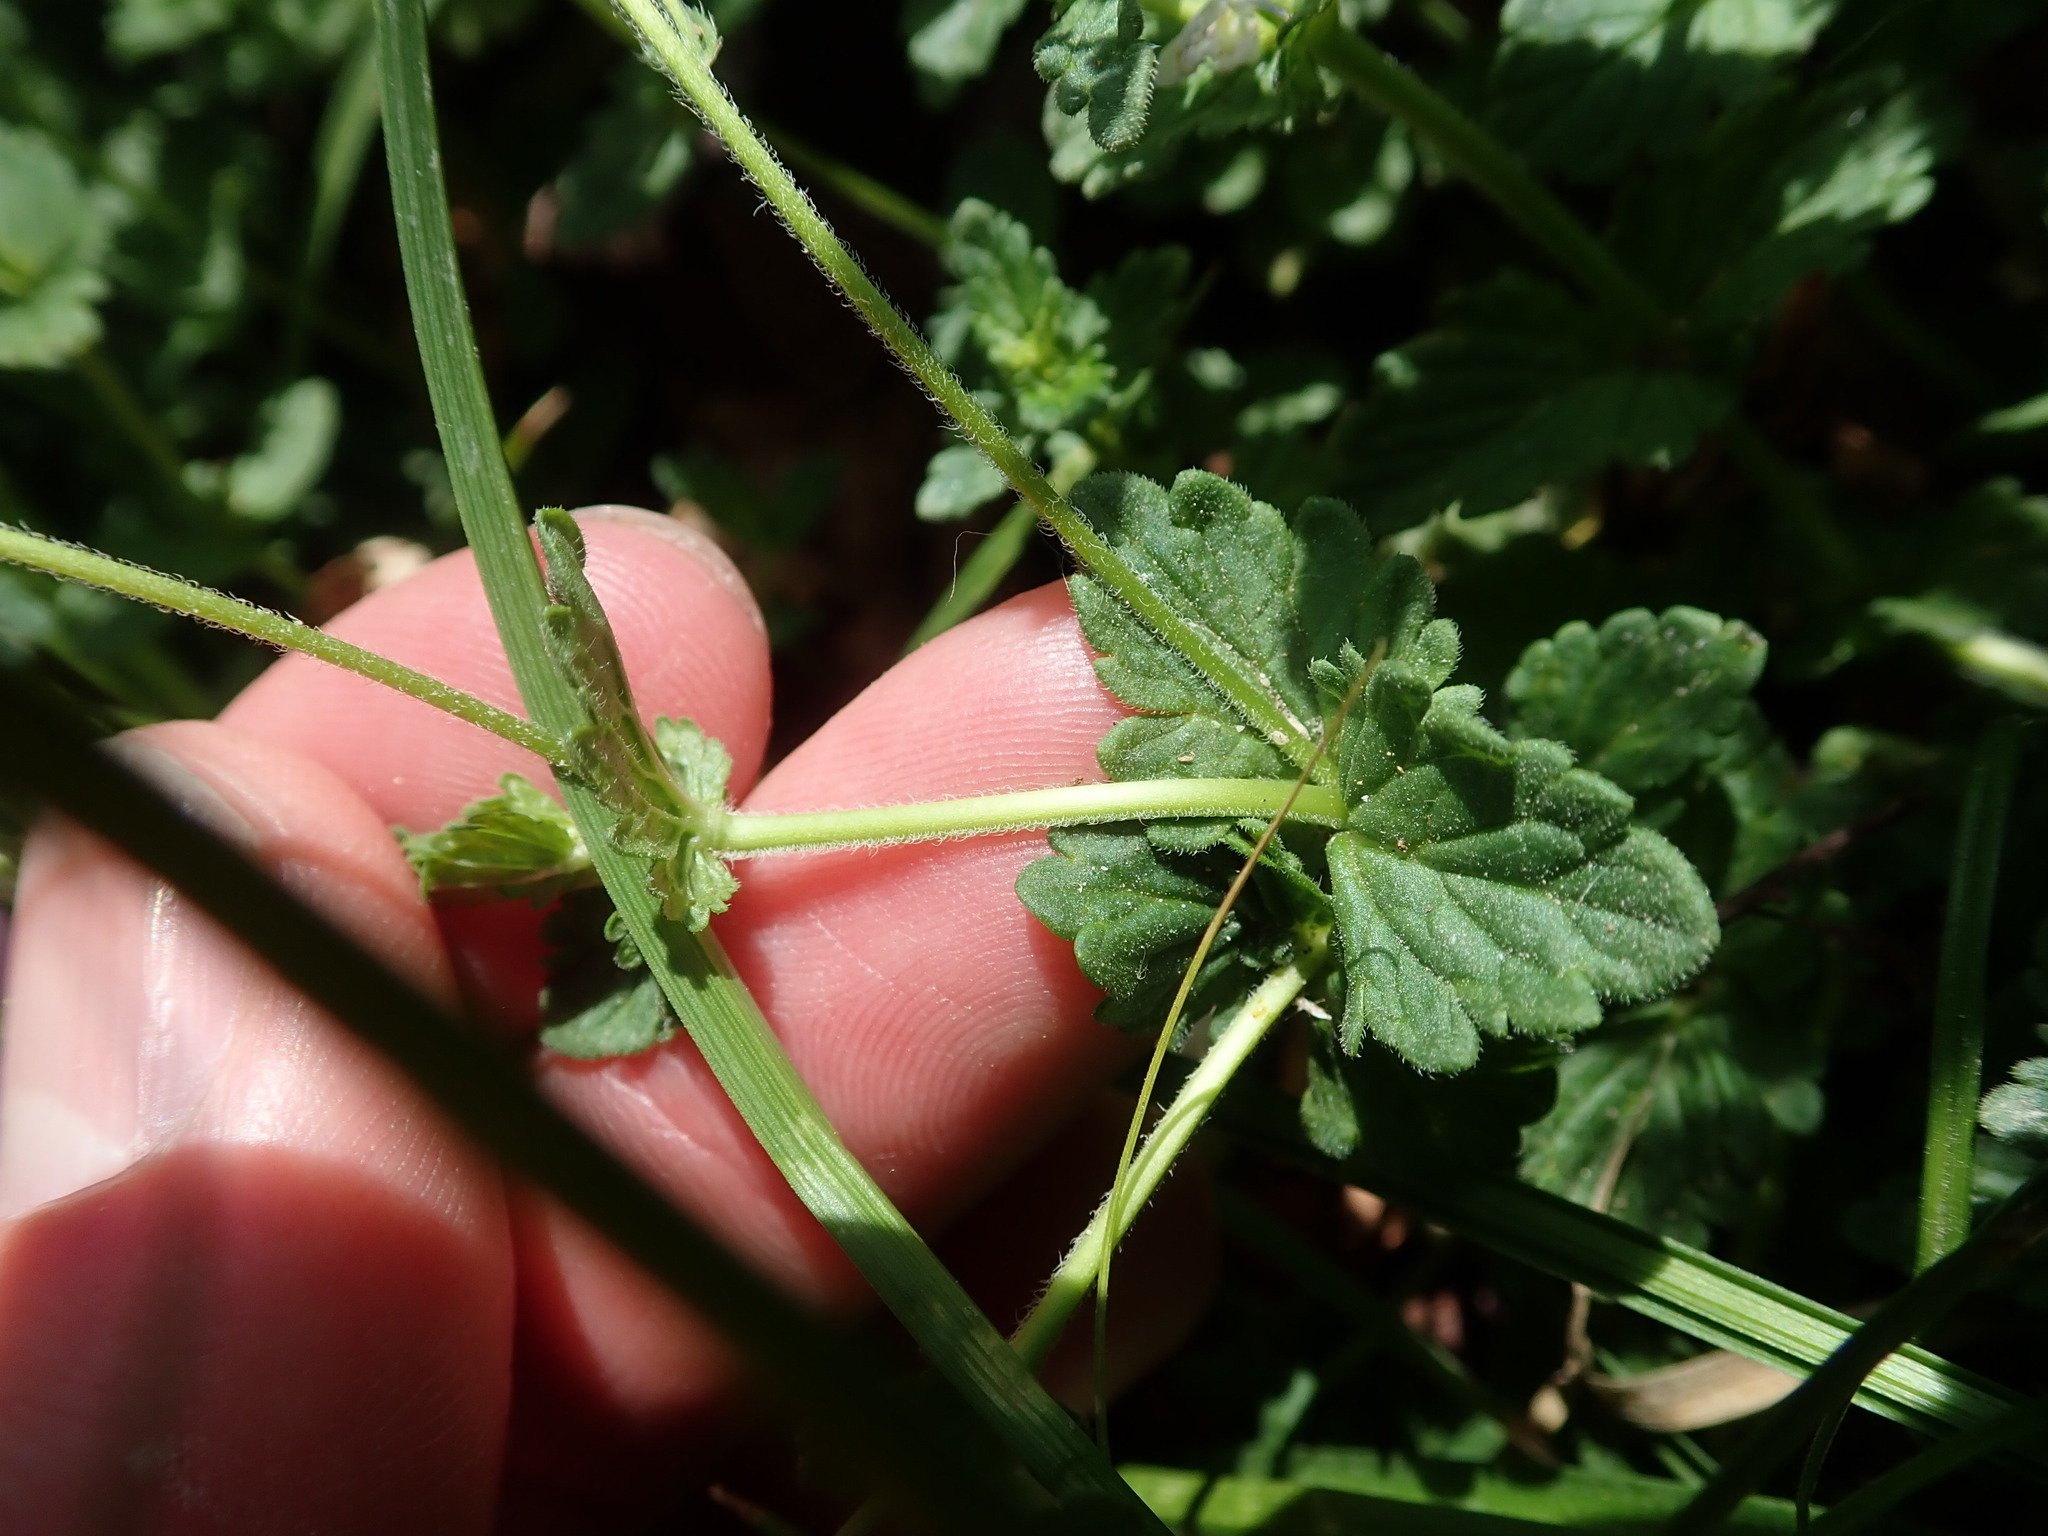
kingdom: Plantae
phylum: Tracheophyta
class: Magnoliopsida
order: Lamiales
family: Plantaginaceae
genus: Veronica
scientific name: Veronica chamaedrys
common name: Germander speedwell
